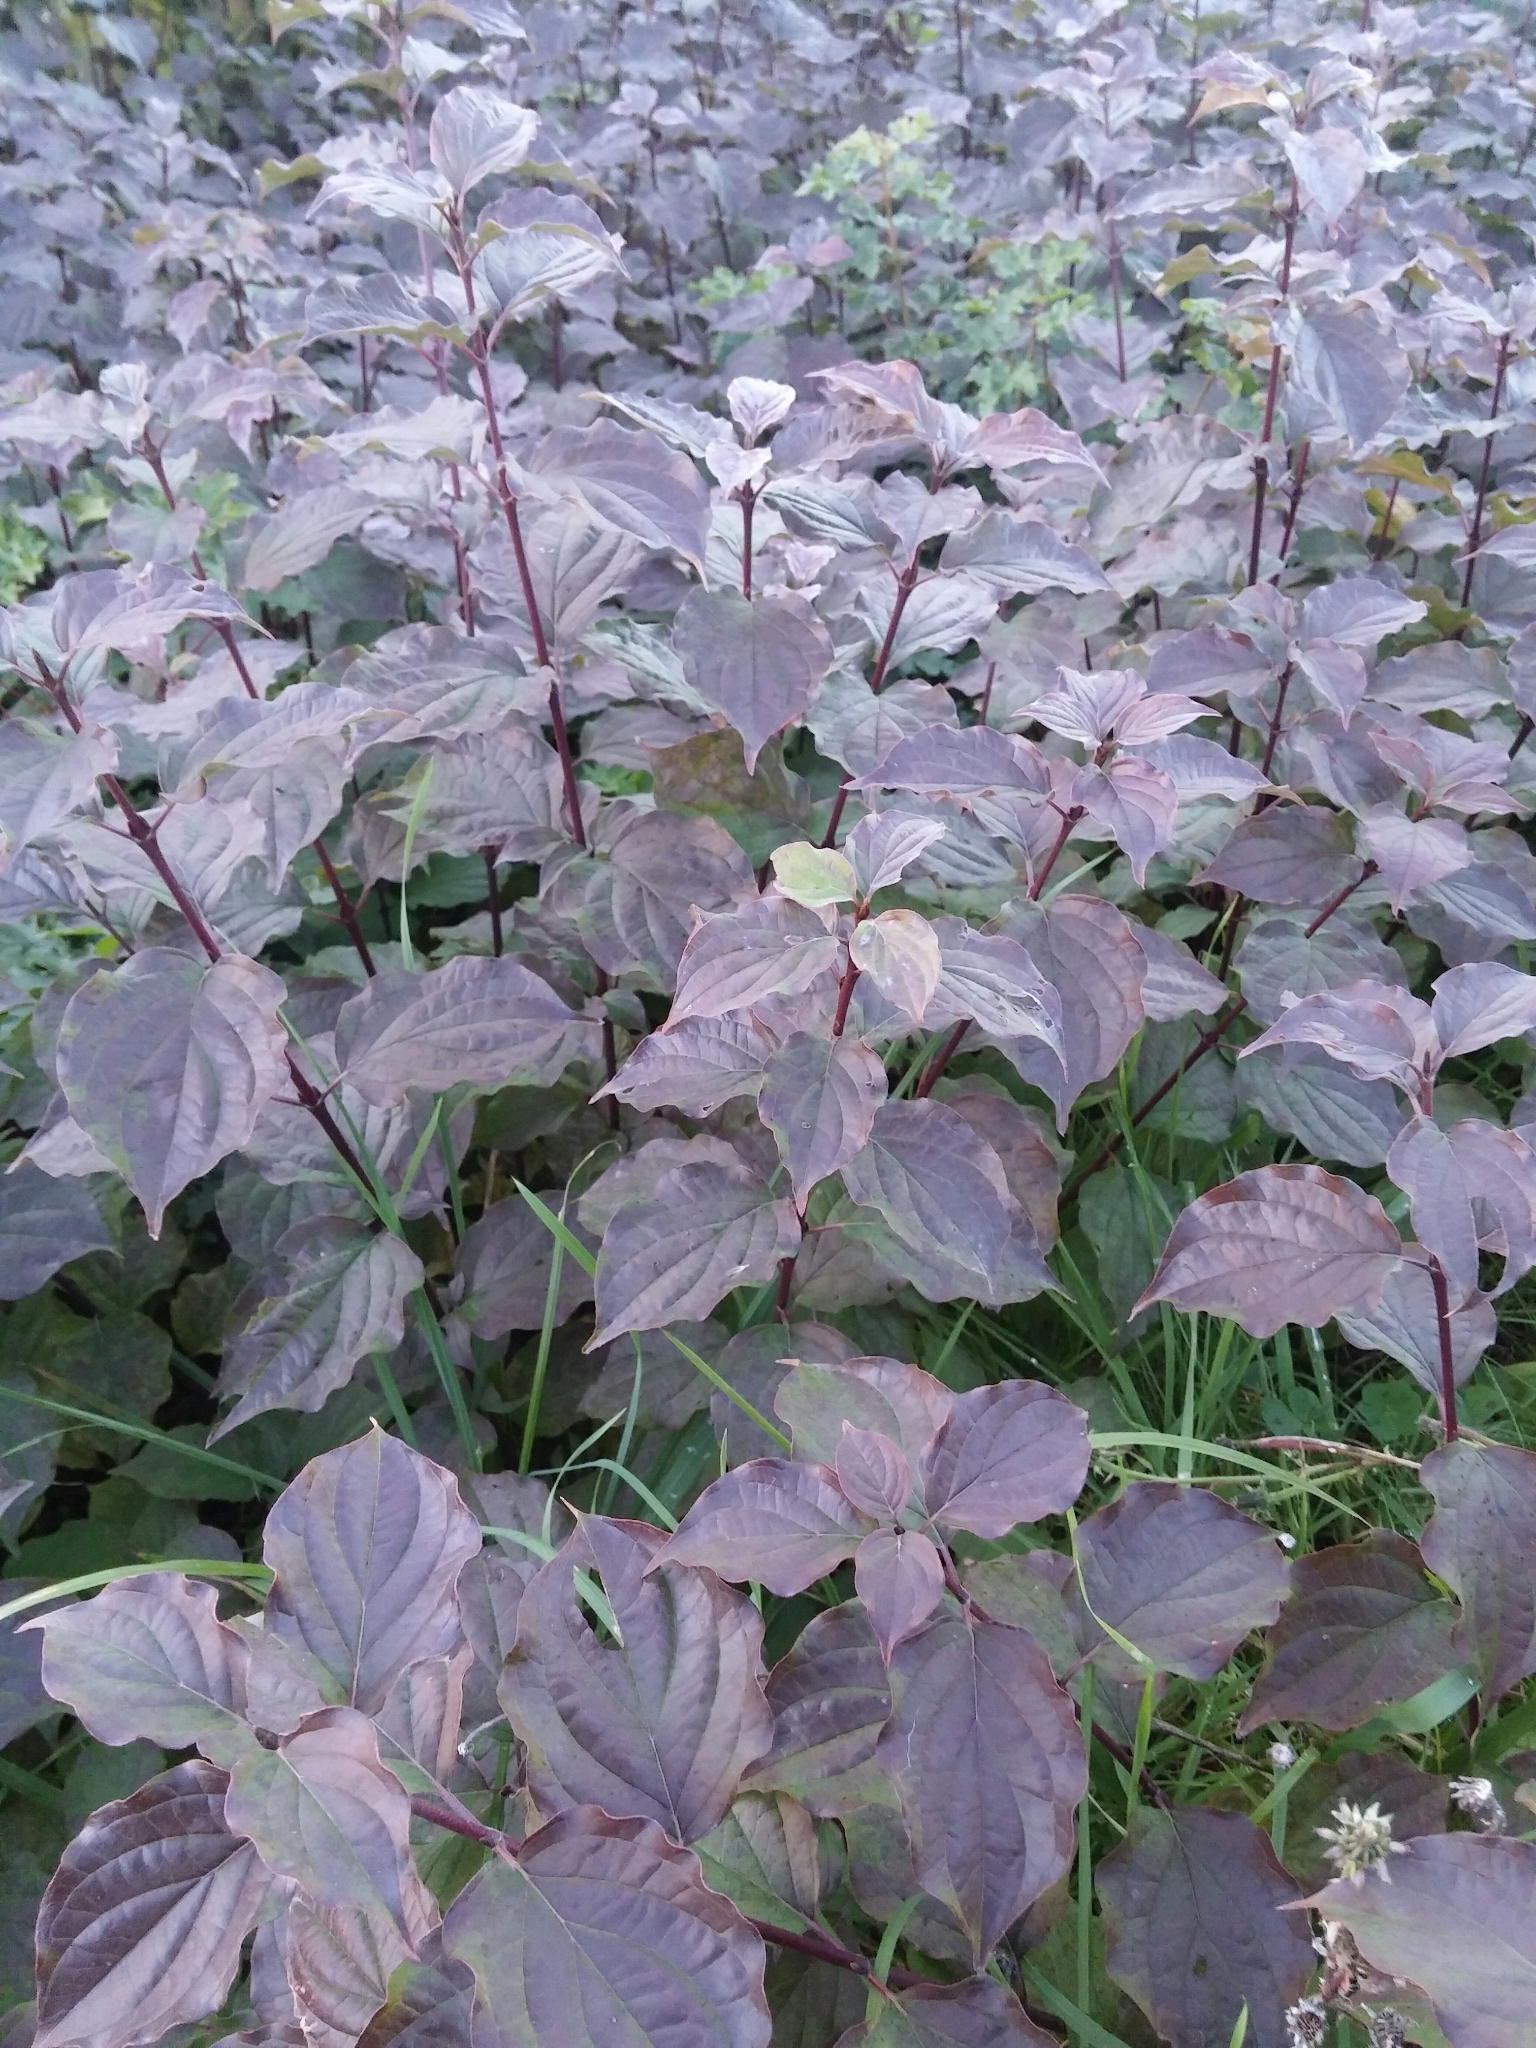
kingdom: Plantae
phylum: Tracheophyta
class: Magnoliopsida
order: Cornales
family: Cornaceae
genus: Cornus
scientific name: Cornus sanguinea
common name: Dogwood
